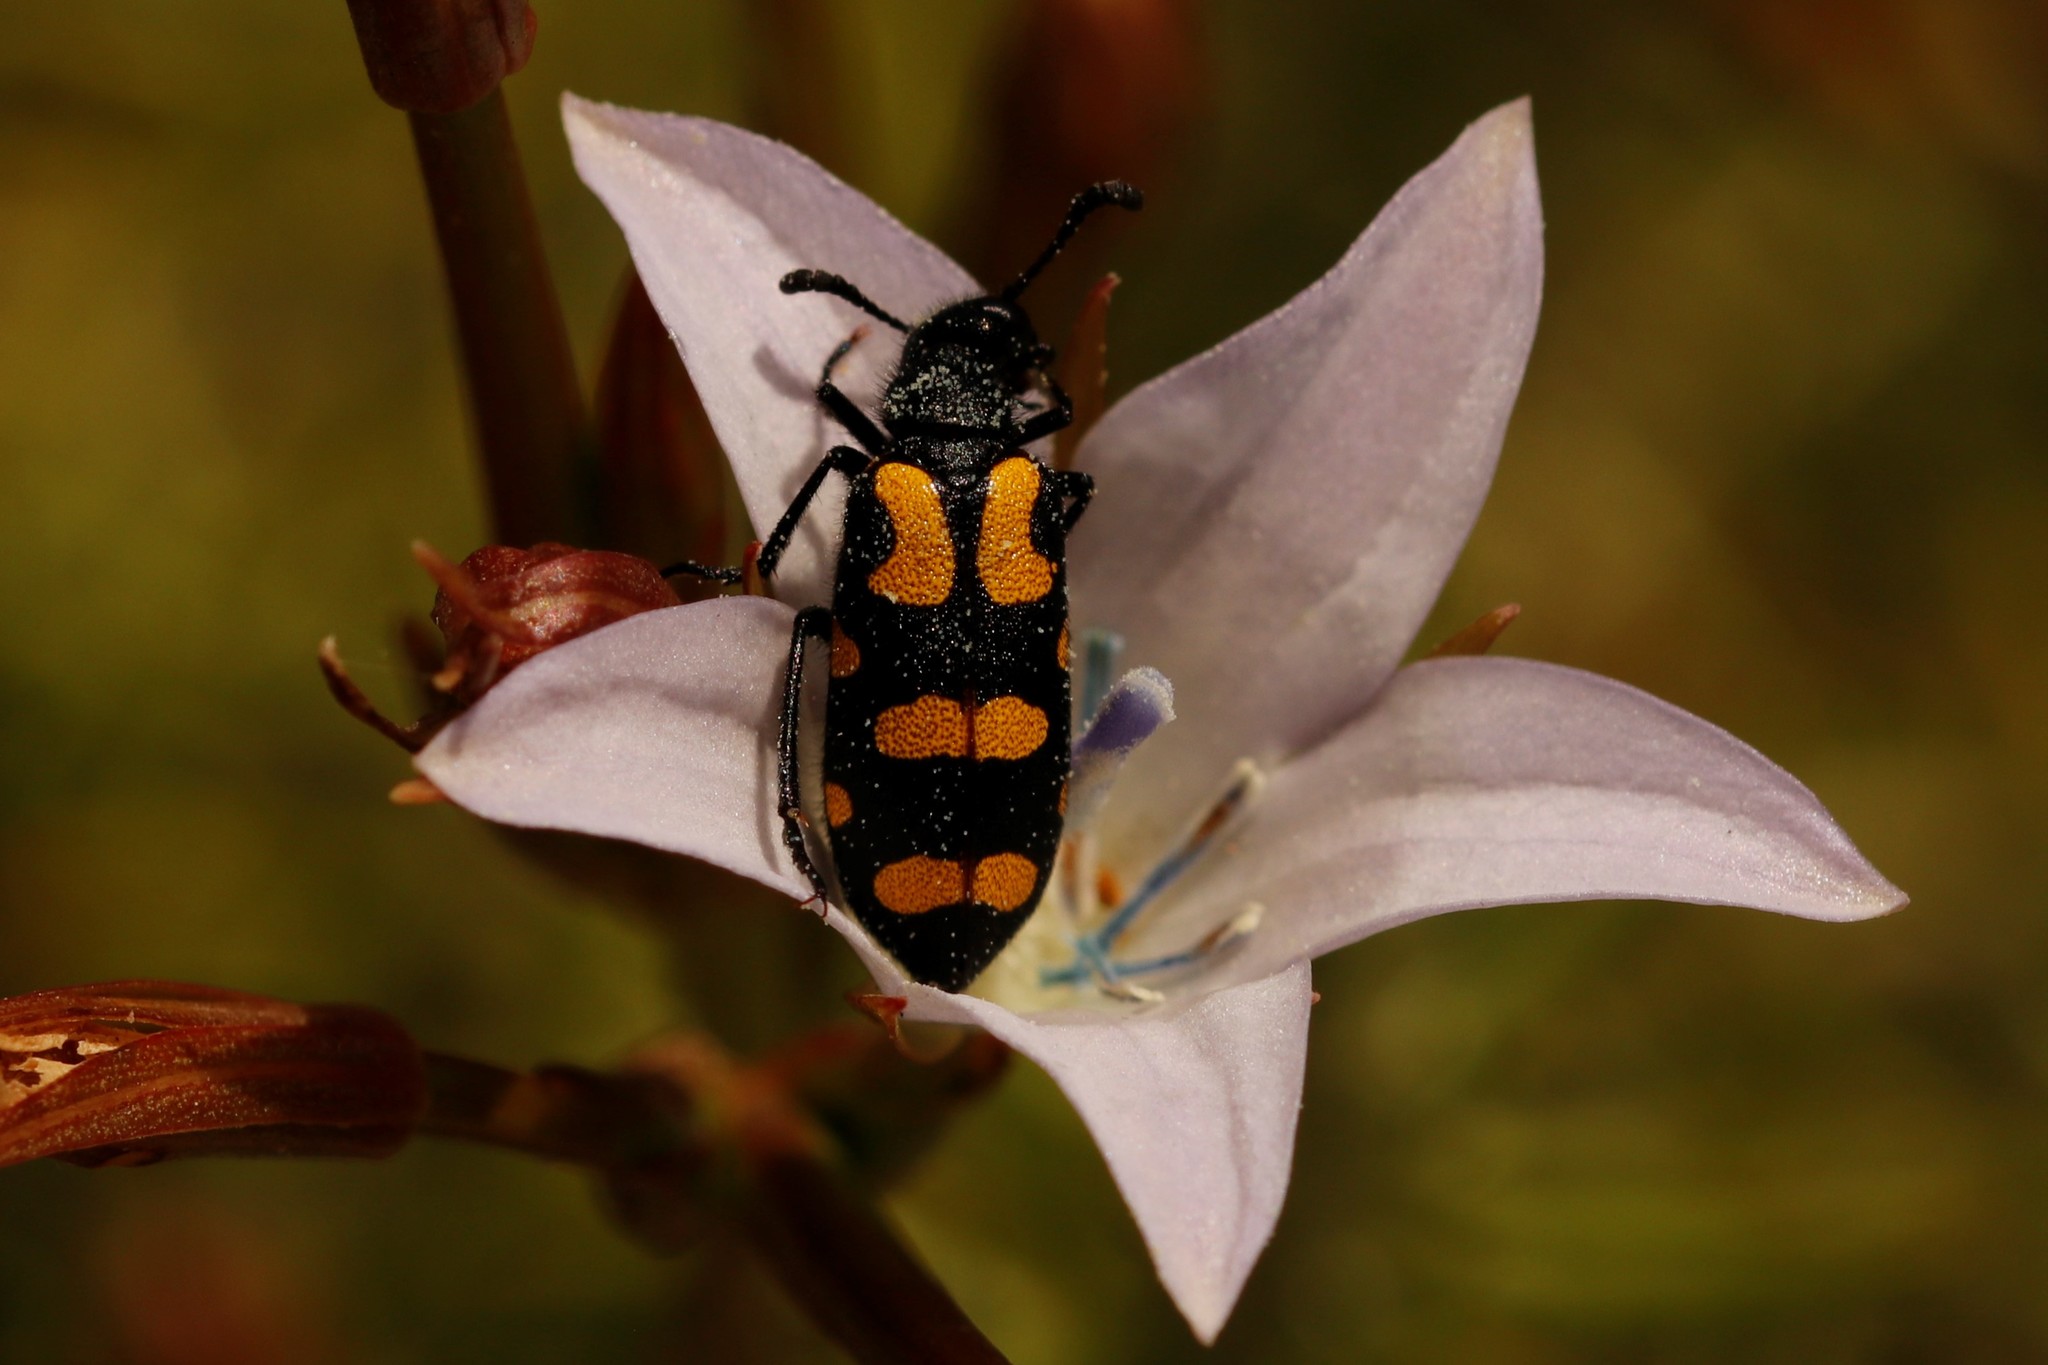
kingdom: Animalia
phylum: Arthropoda
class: Insecta
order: Coleoptera
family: Meloidae
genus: Ceroctis
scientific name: Ceroctis capensis
